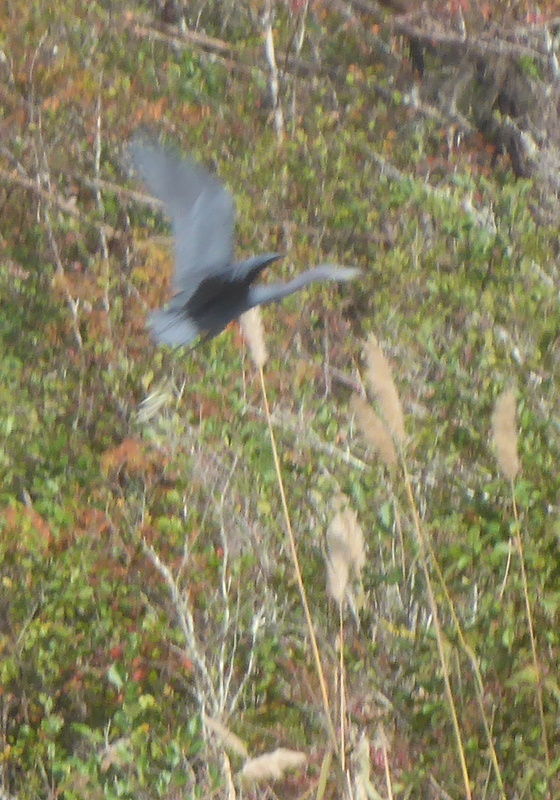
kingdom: Animalia
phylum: Chordata
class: Aves
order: Pelecaniformes
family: Ardeidae
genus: Egretta
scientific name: Egretta caerulea
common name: Little blue heron
